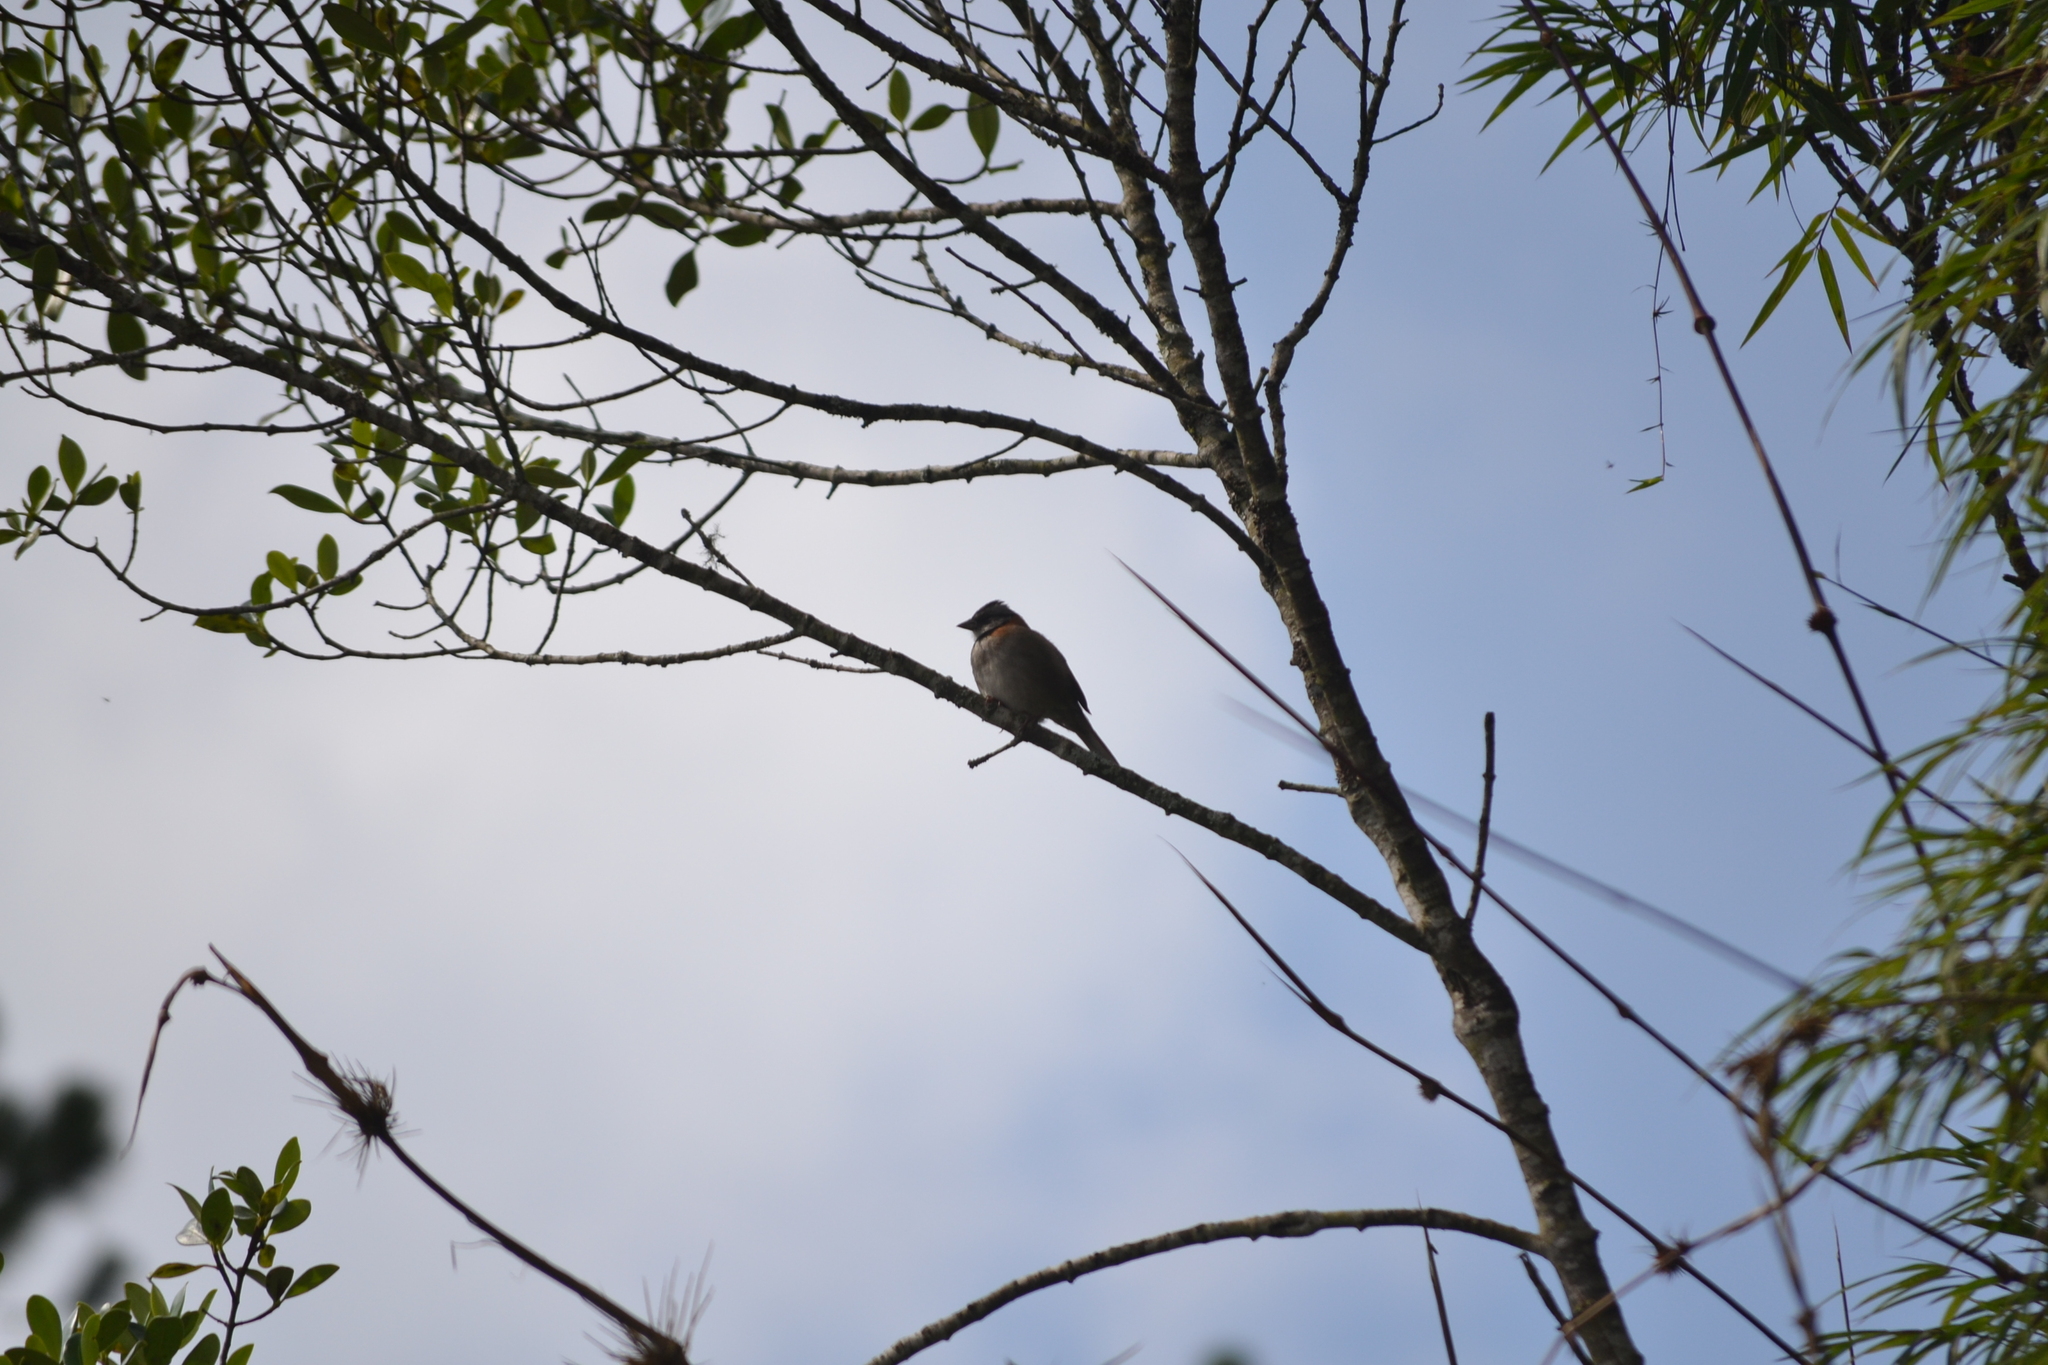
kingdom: Animalia
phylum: Chordata
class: Aves
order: Passeriformes
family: Passerellidae
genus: Zonotrichia
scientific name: Zonotrichia capensis
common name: Rufous-collared sparrow
